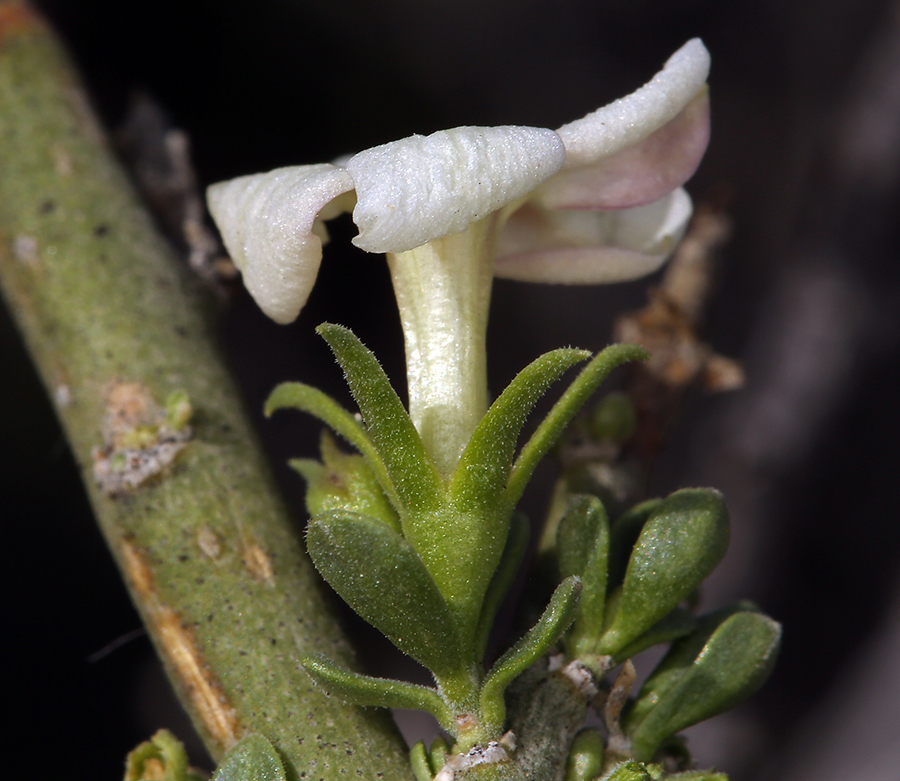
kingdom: Plantae
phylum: Tracheophyta
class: Magnoliopsida
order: Lamiales
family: Oleaceae
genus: Menodora
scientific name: Menodora spinescens
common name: Spiny menodora
